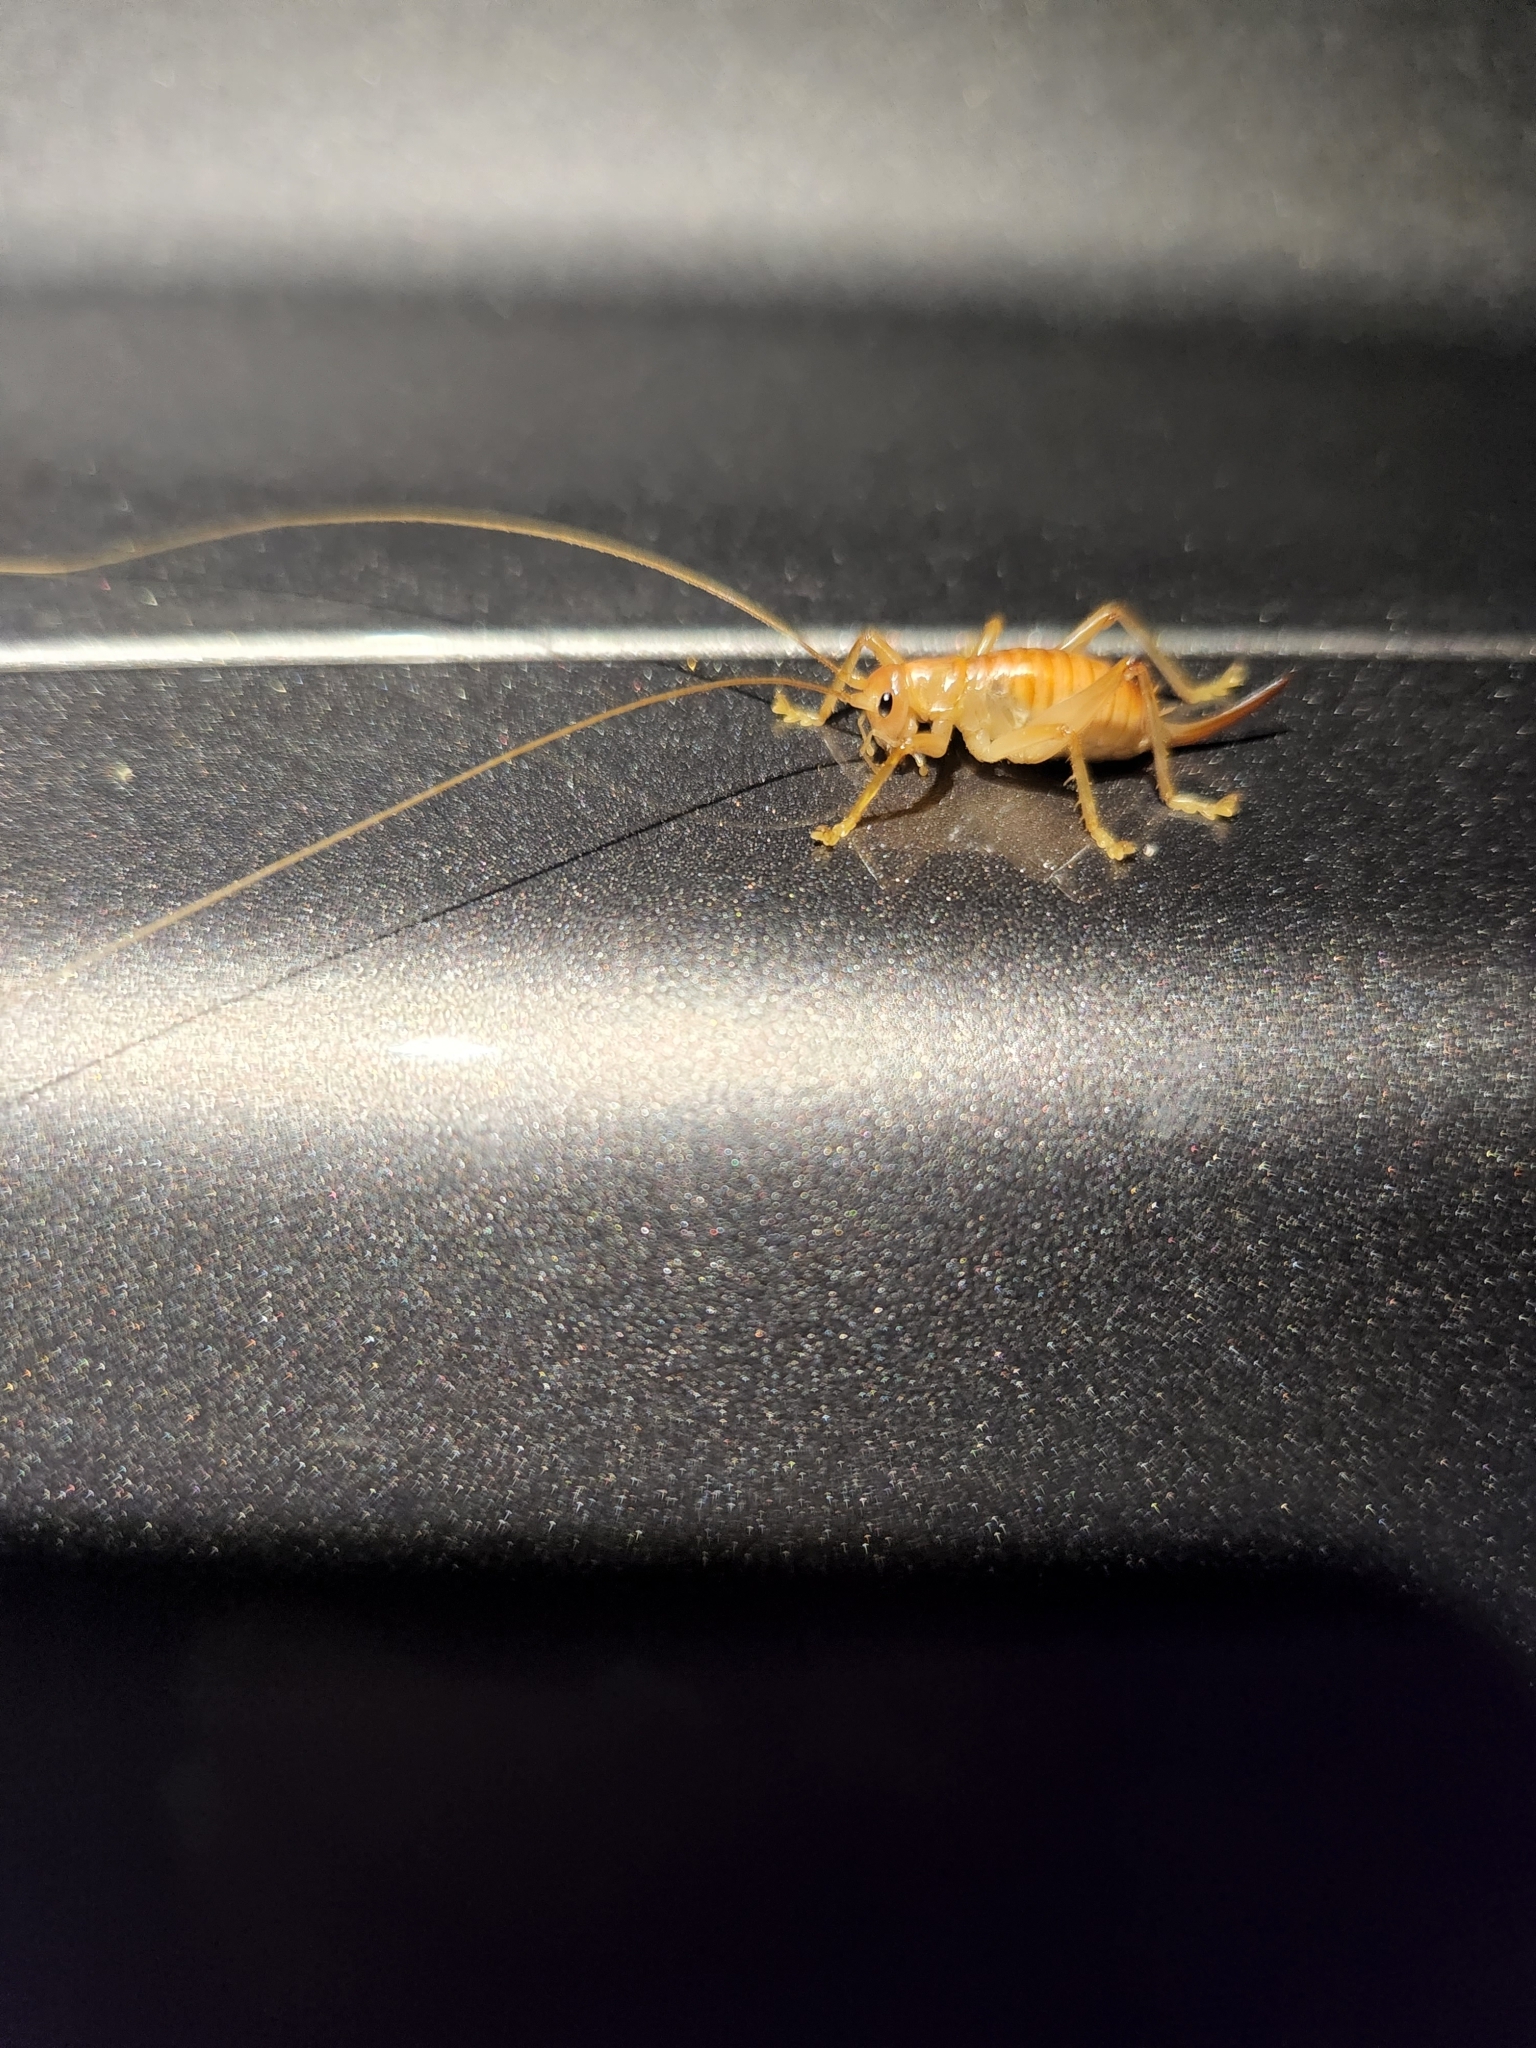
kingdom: Animalia
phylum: Arthropoda
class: Insecta
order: Lepidoptera
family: Limacodidae
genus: Euclea
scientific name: Euclea delphinii
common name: Spiny oak-slug moth
